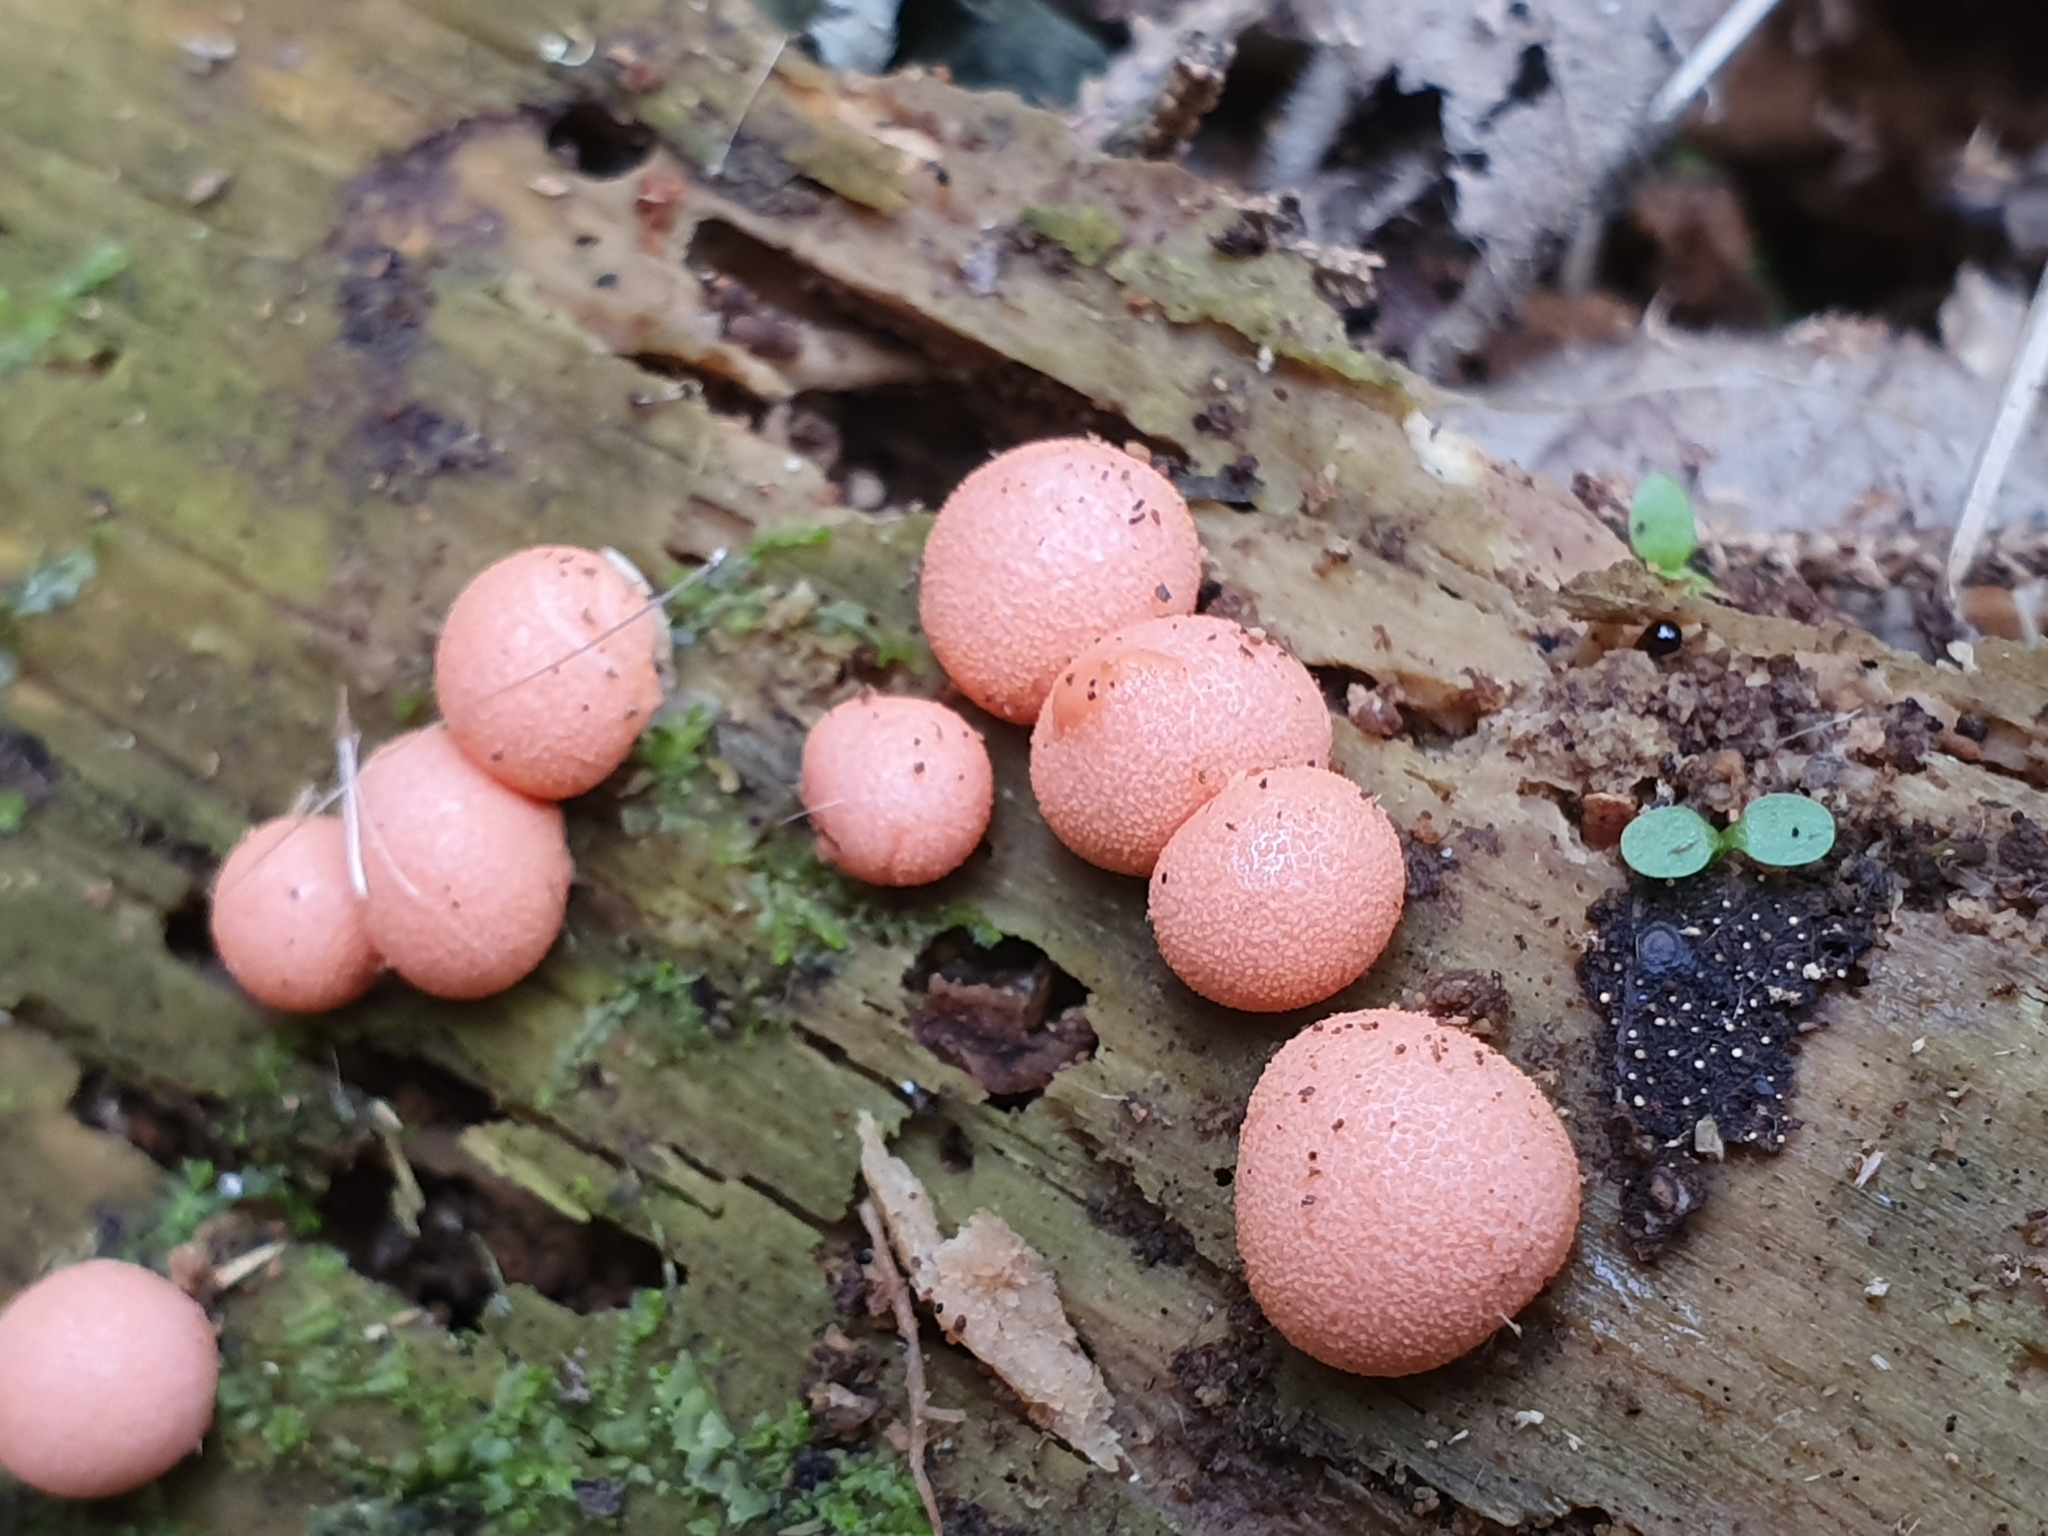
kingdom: Protozoa
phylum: Mycetozoa
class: Myxomycetes
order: Cribrariales
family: Tubiferaceae
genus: Lycogala
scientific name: Lycogala epidendrum
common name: Wolf's milk
